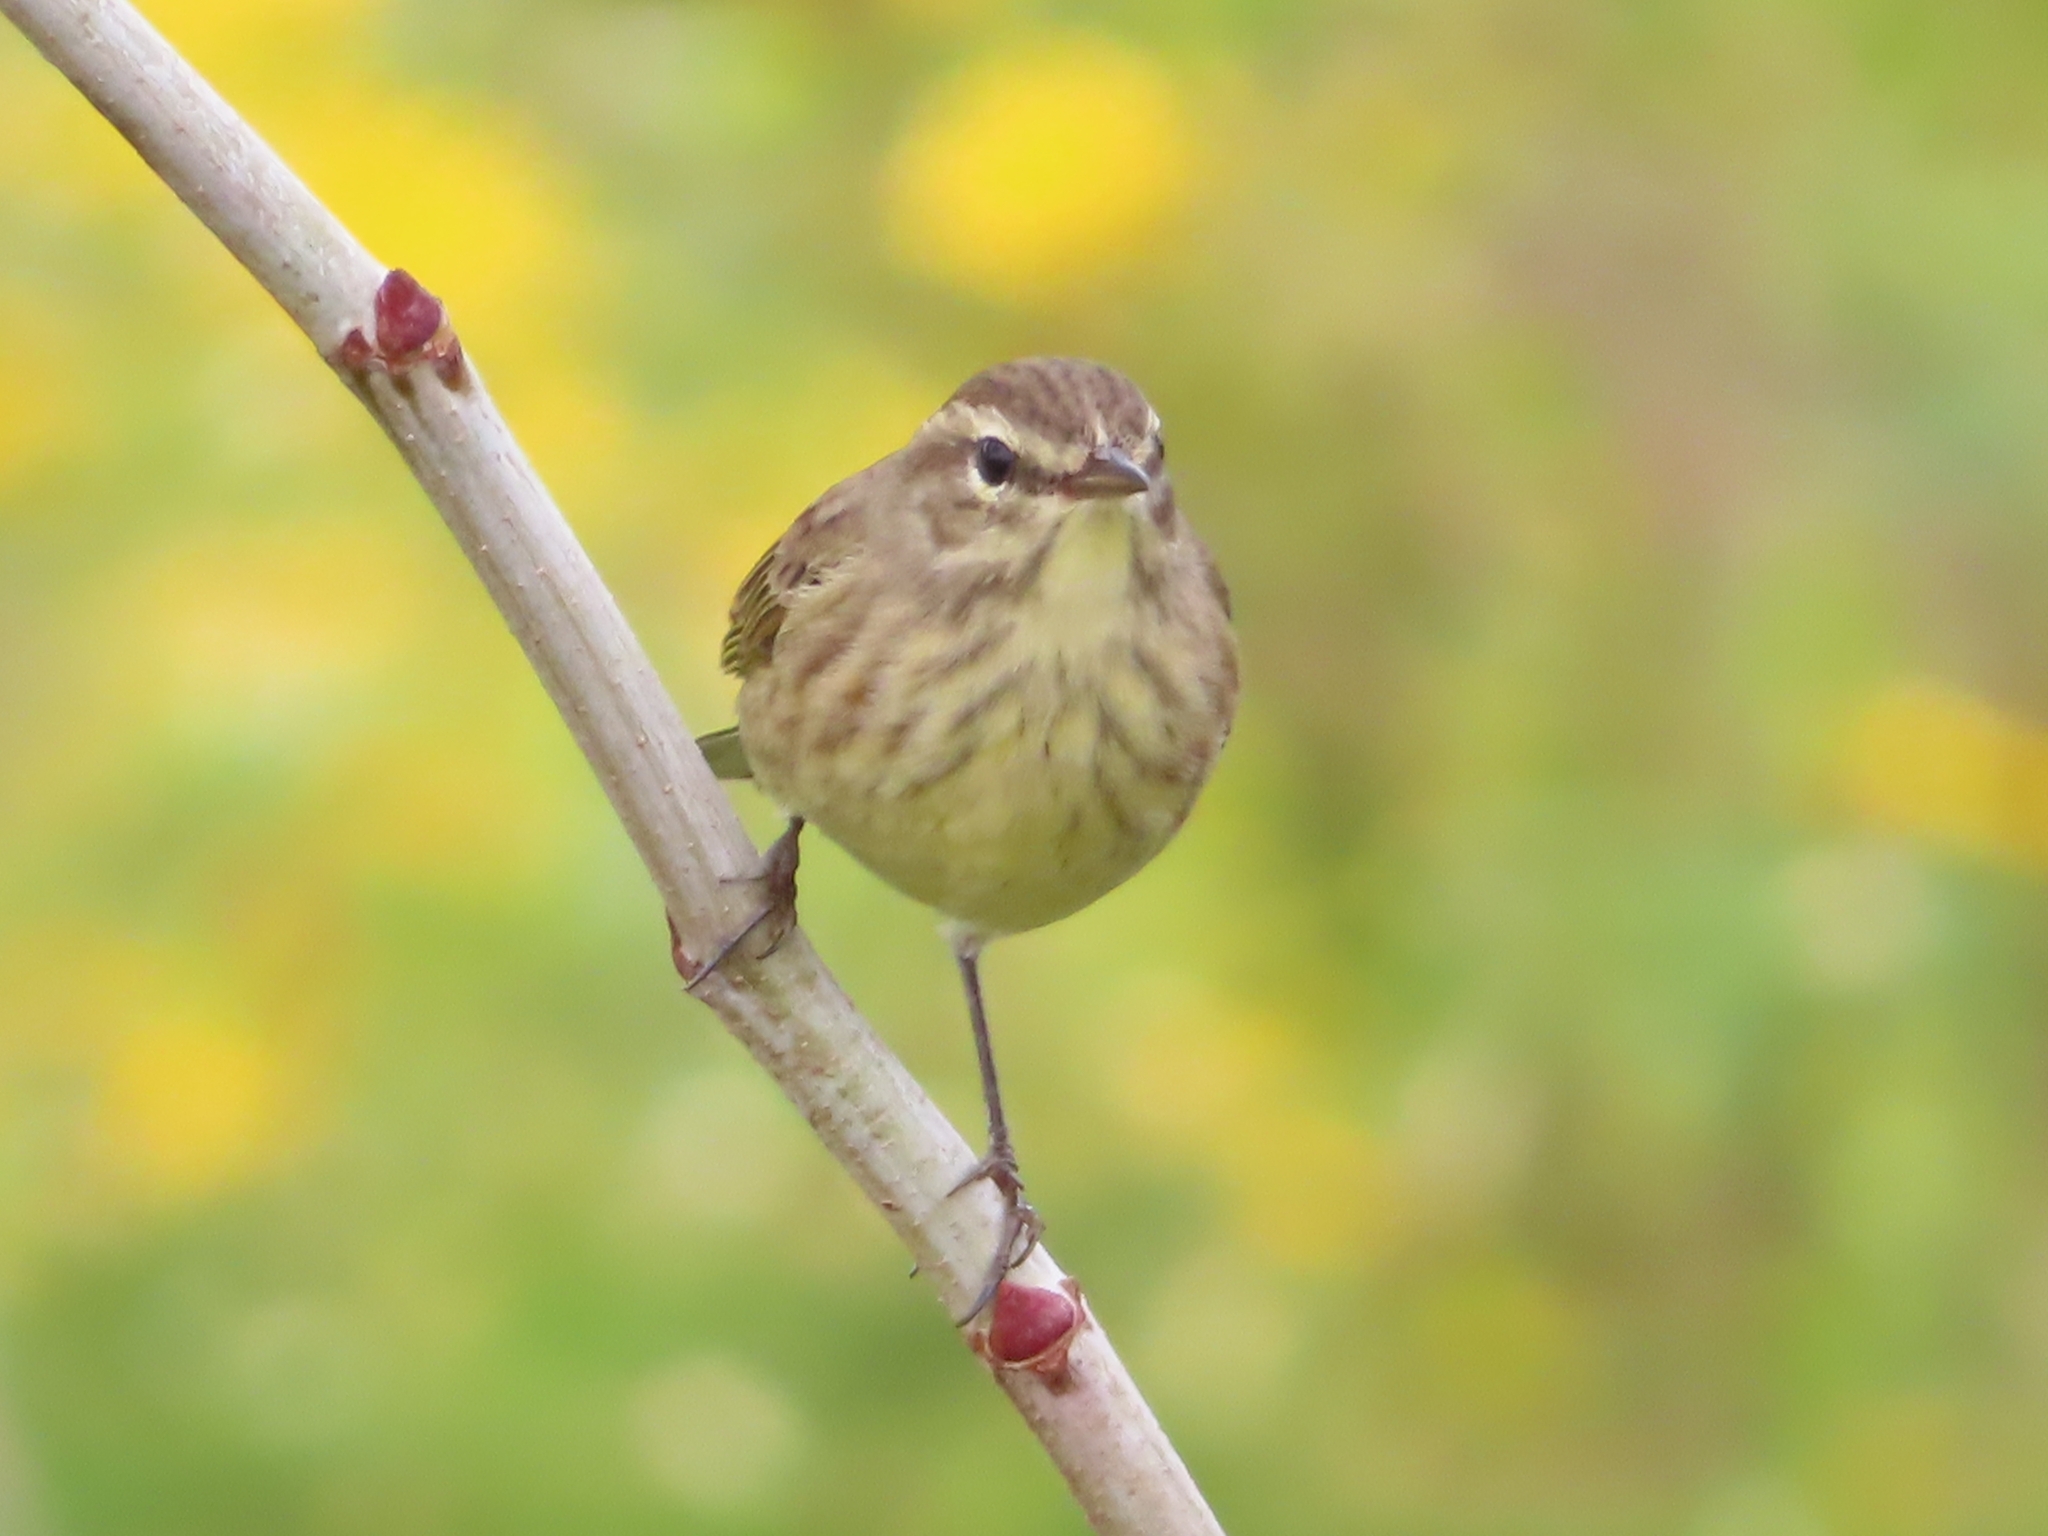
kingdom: Animalia
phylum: Chordata
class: Aves
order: Passeriformes
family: Parulidae
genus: Setophaga
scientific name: Setophaga palmarum
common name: Palm warbler
